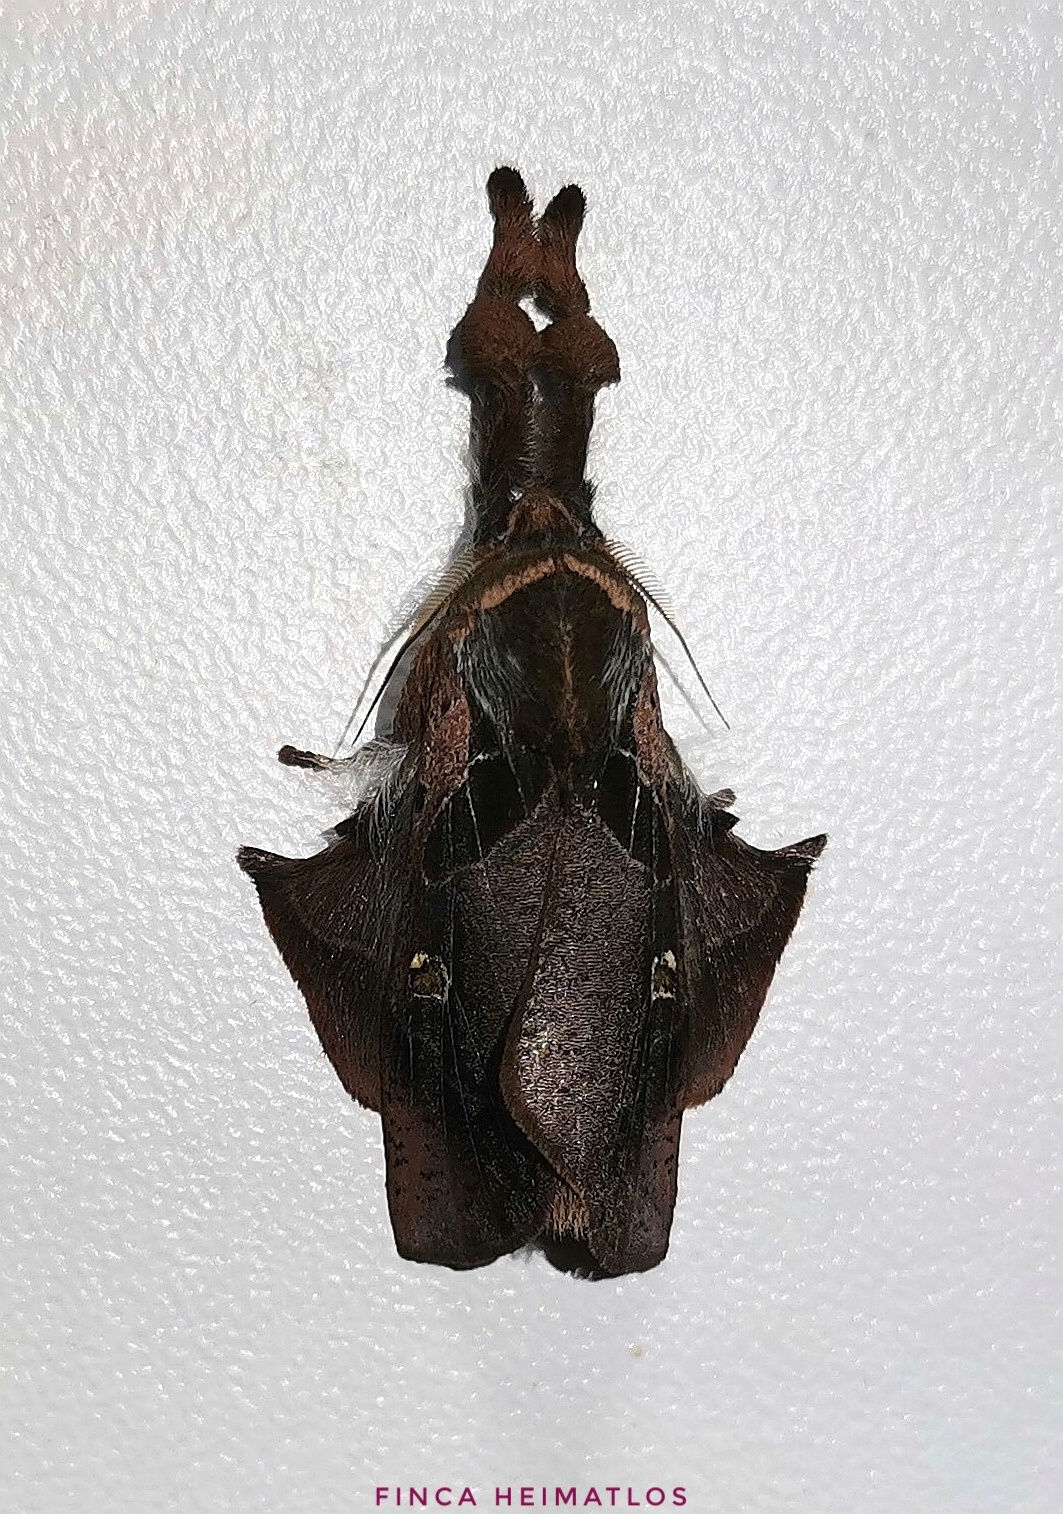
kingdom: Animalia
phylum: Arthropoda
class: Insecta
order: Lepidoptera
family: Erebidae
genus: Desmoloma
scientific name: Desmoloma signata
